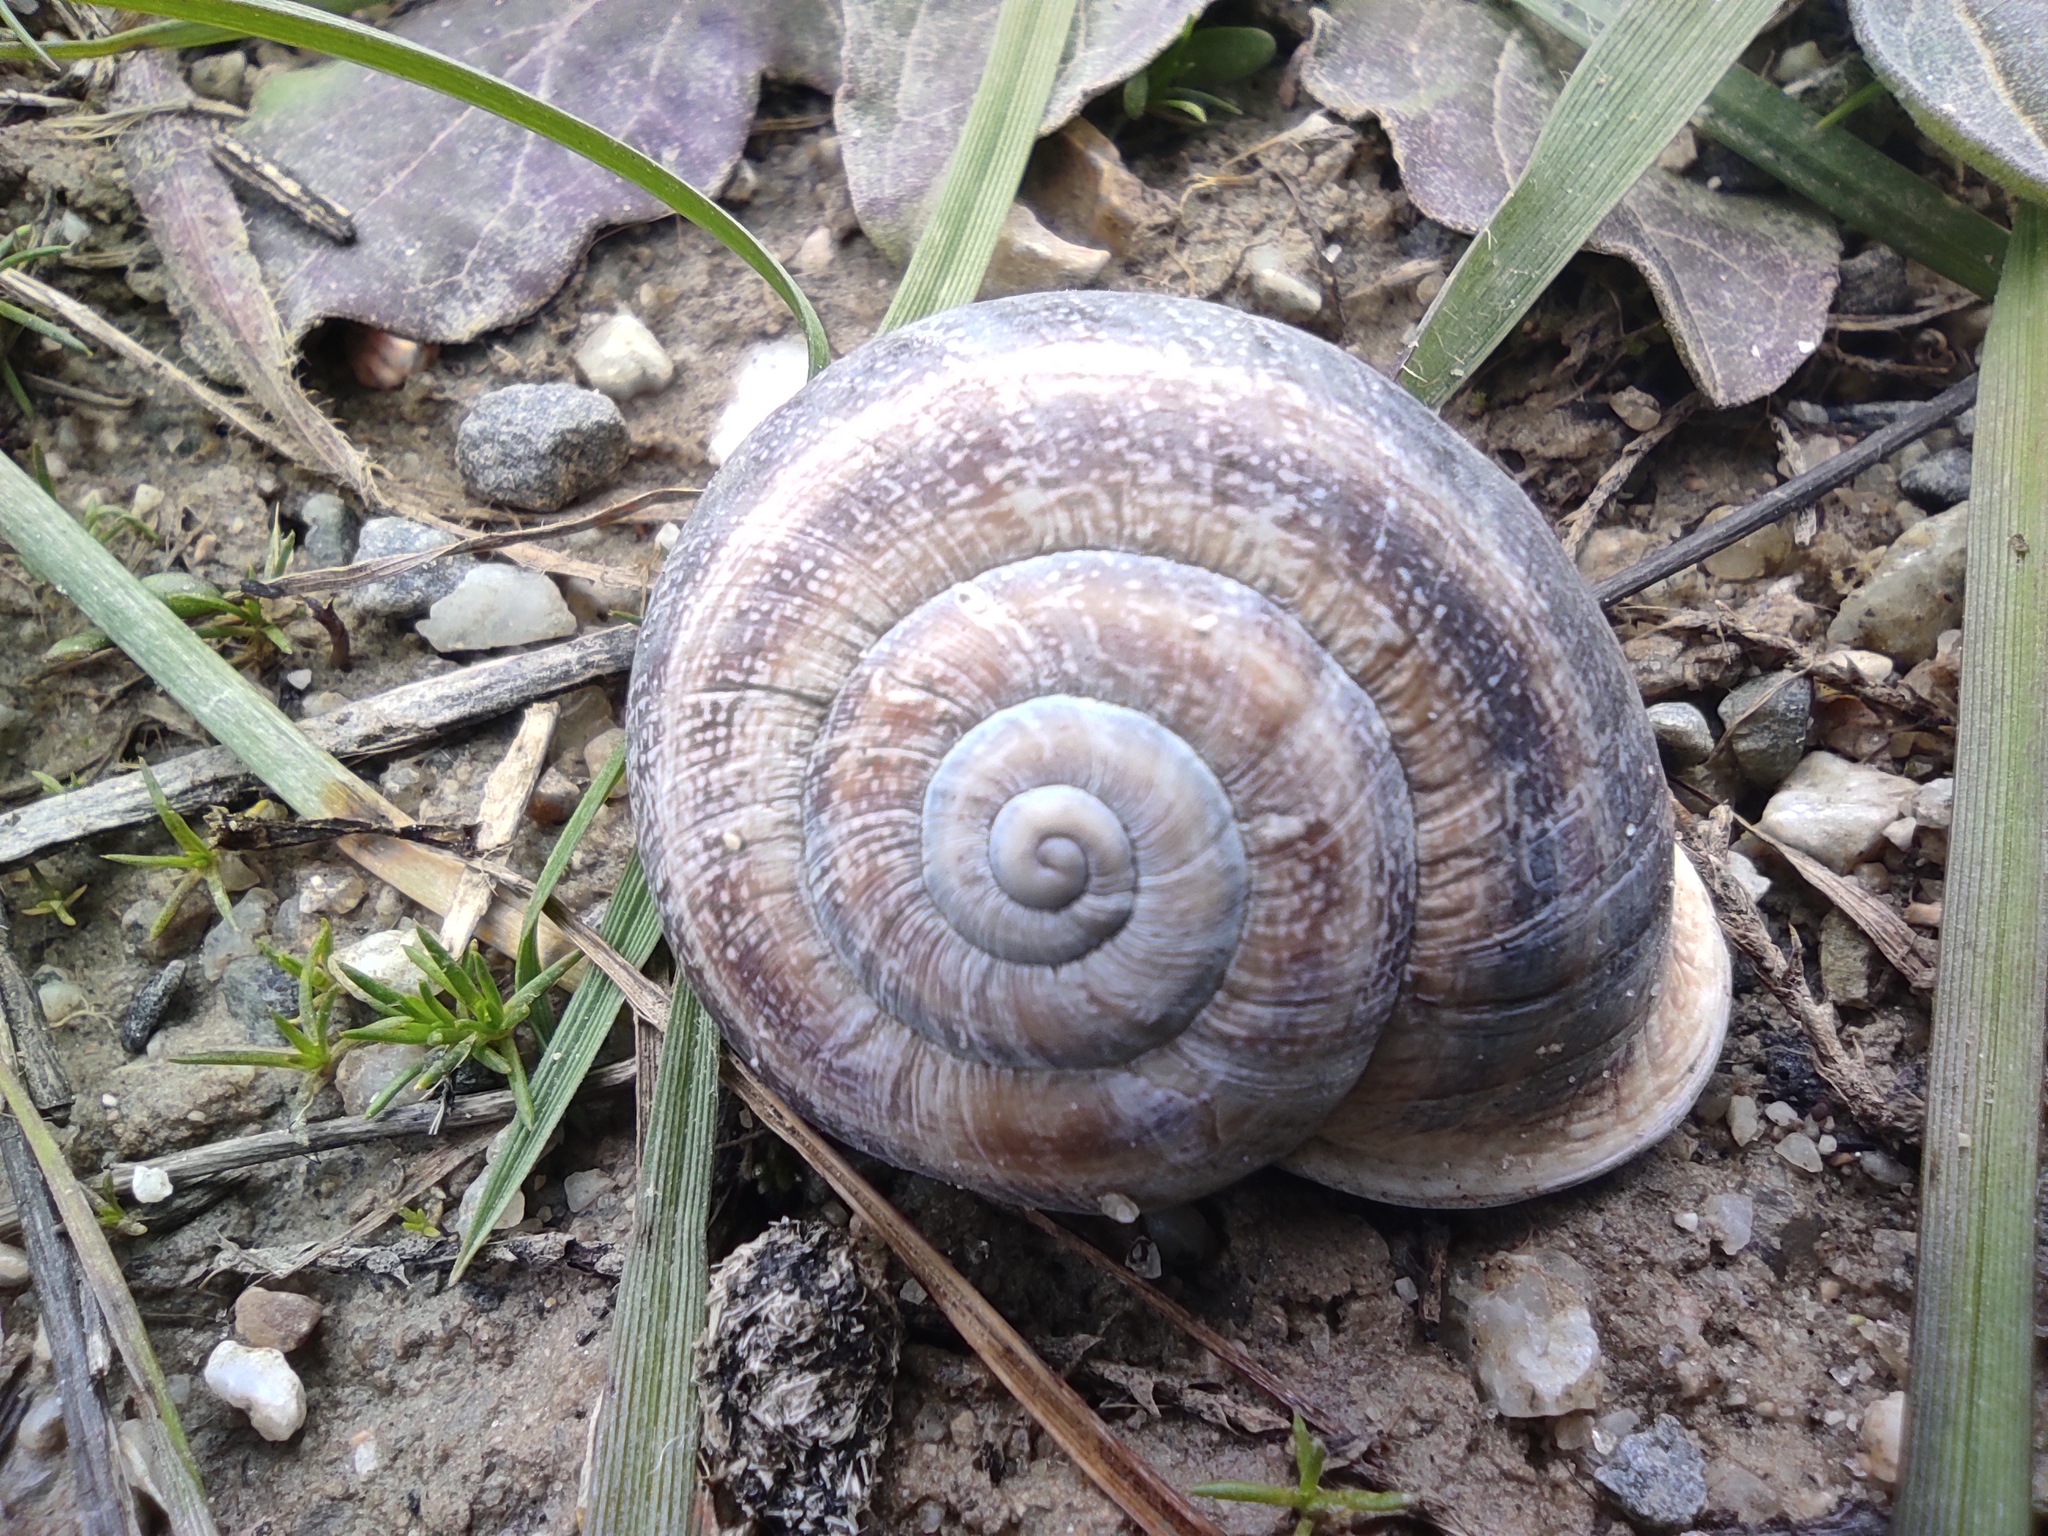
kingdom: Animalia
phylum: Mollusca
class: Gastropoda
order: Stylommatophora
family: Helicidae
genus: Otala
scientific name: Otala lactea
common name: Milk snail
